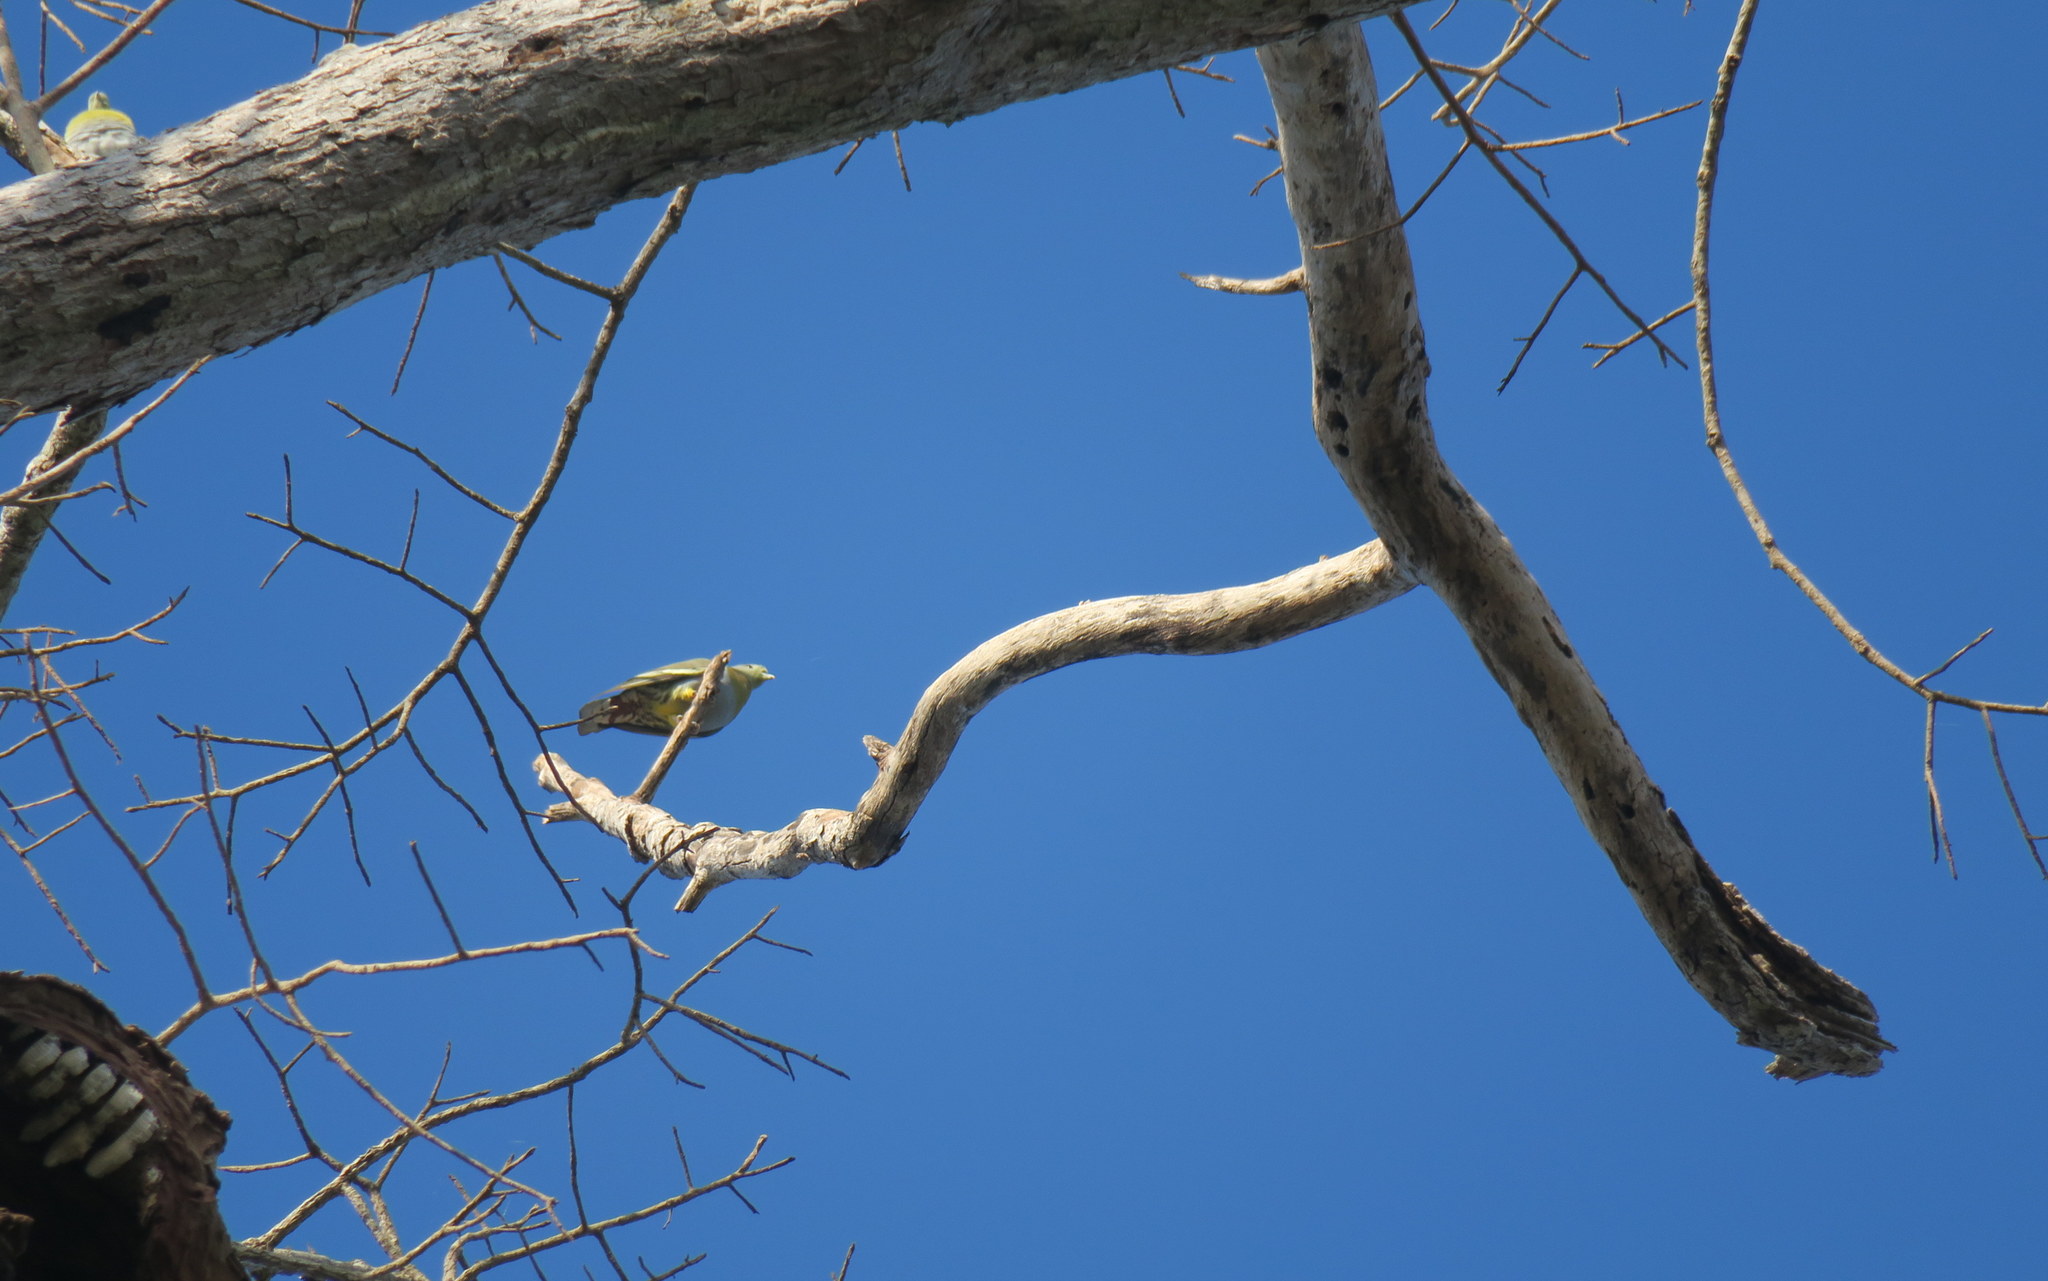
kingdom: Animalia
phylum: Chordata
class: Aves
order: Columbiformes
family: Columbidae
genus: Treron
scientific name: Treron phoenicopterus
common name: Yellow-footed green pigeon
